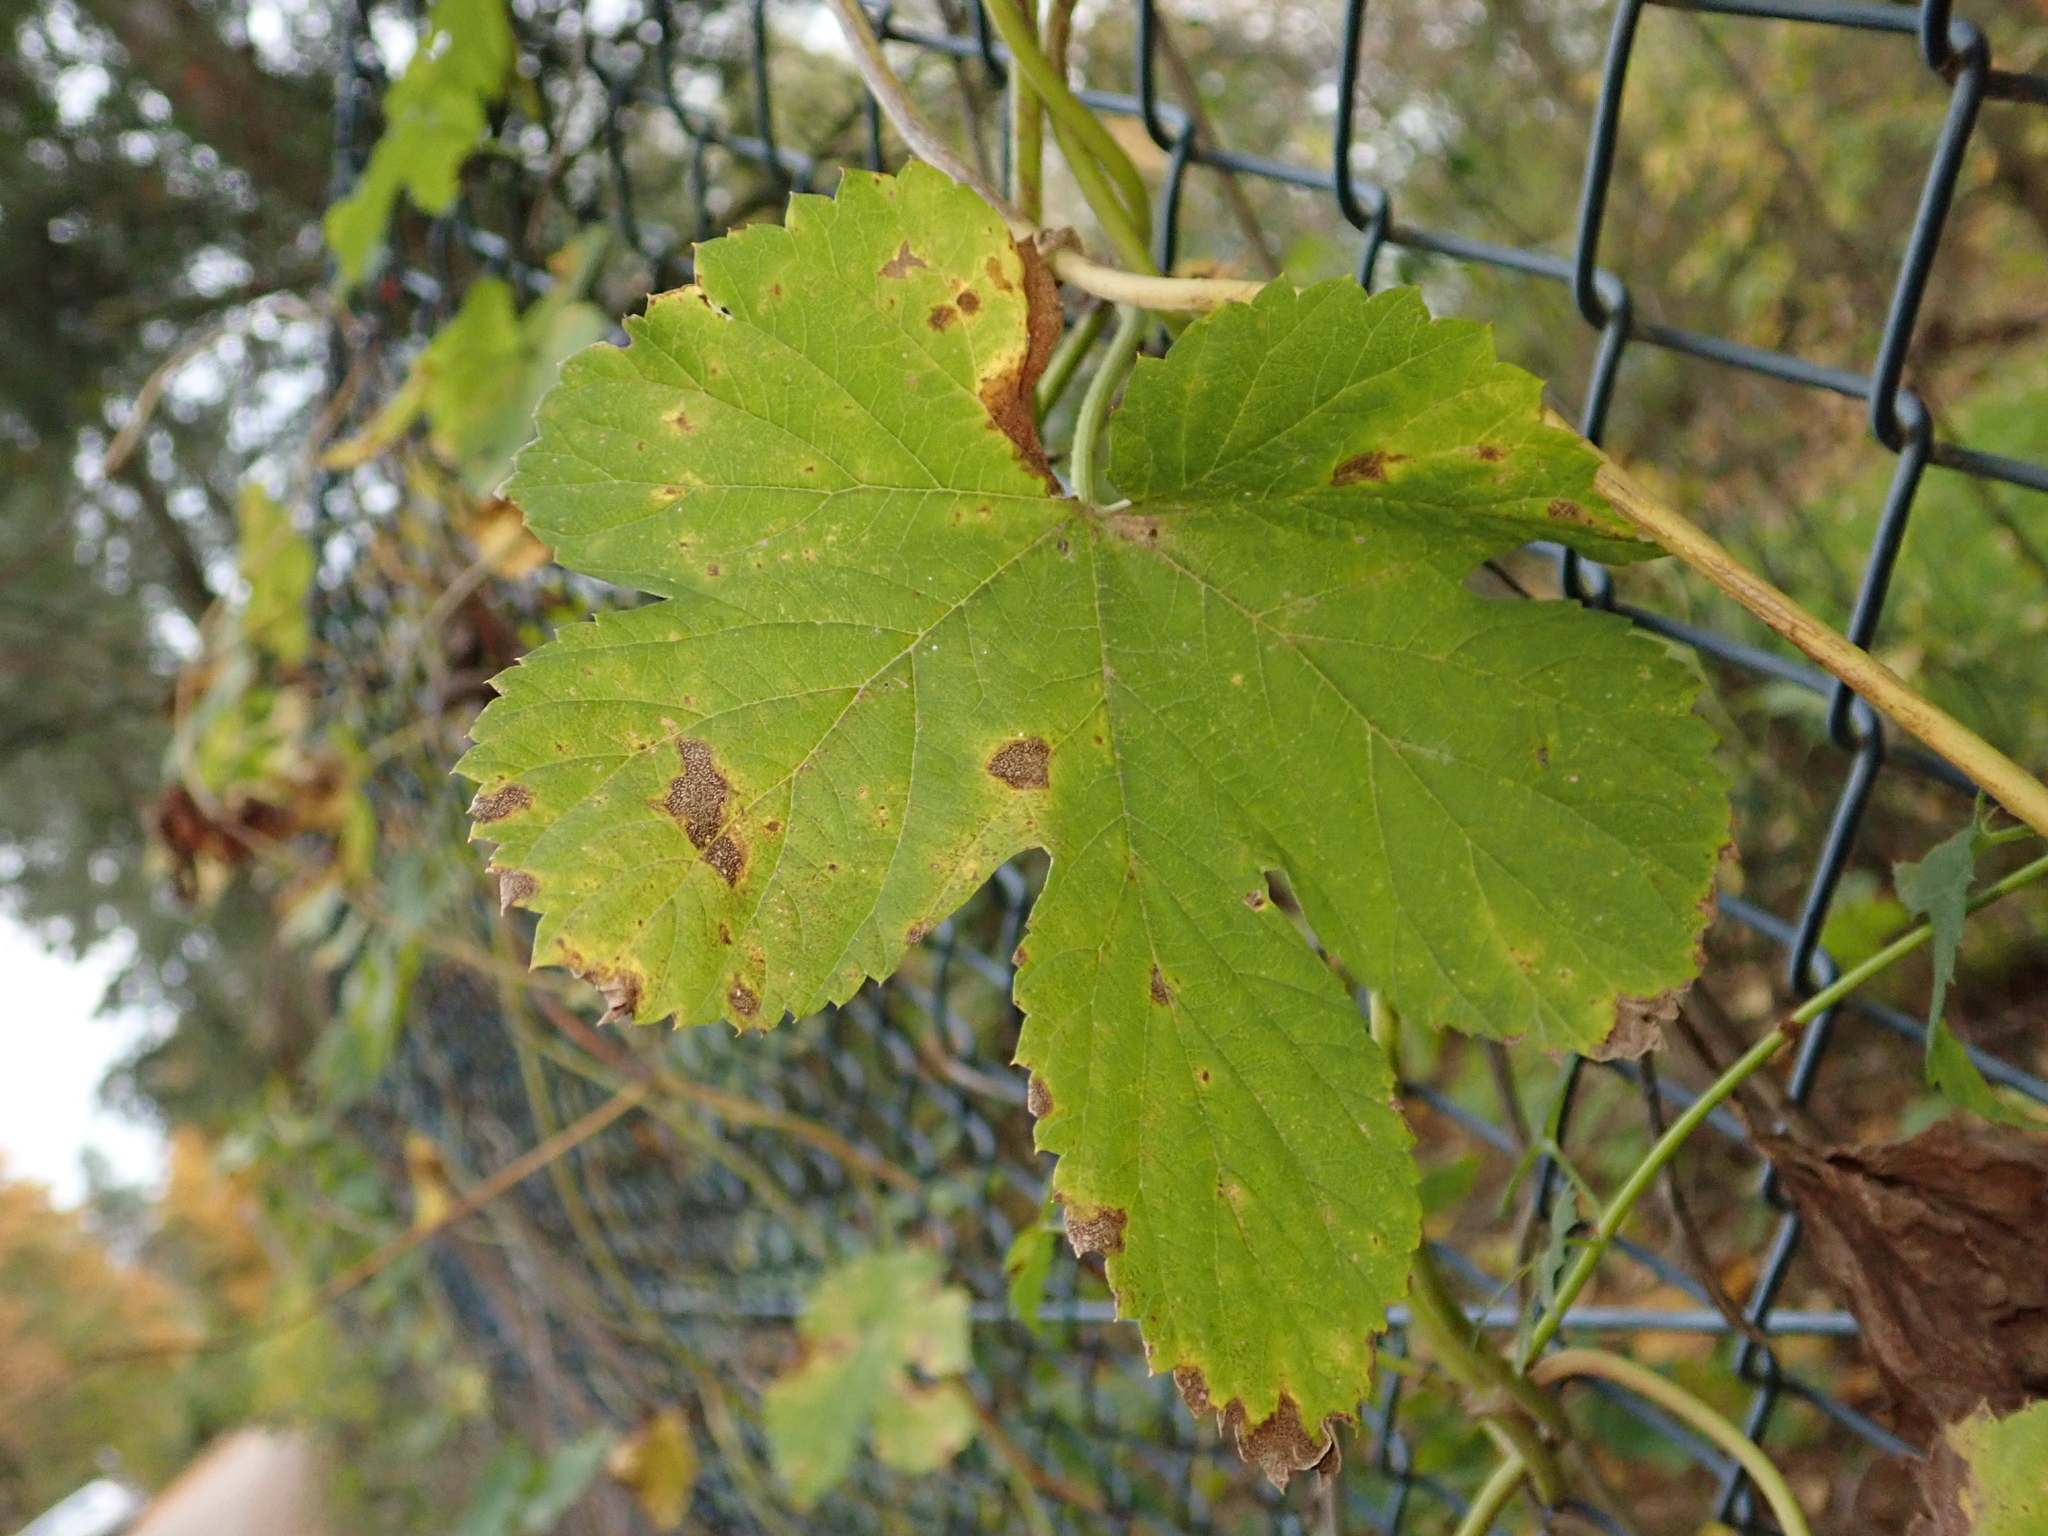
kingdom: Plantae
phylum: Tracheophyta
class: Magnoliopsida
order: Rosales
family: Cannabaceae
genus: Humulus
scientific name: Humulus lupulus
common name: Hop
